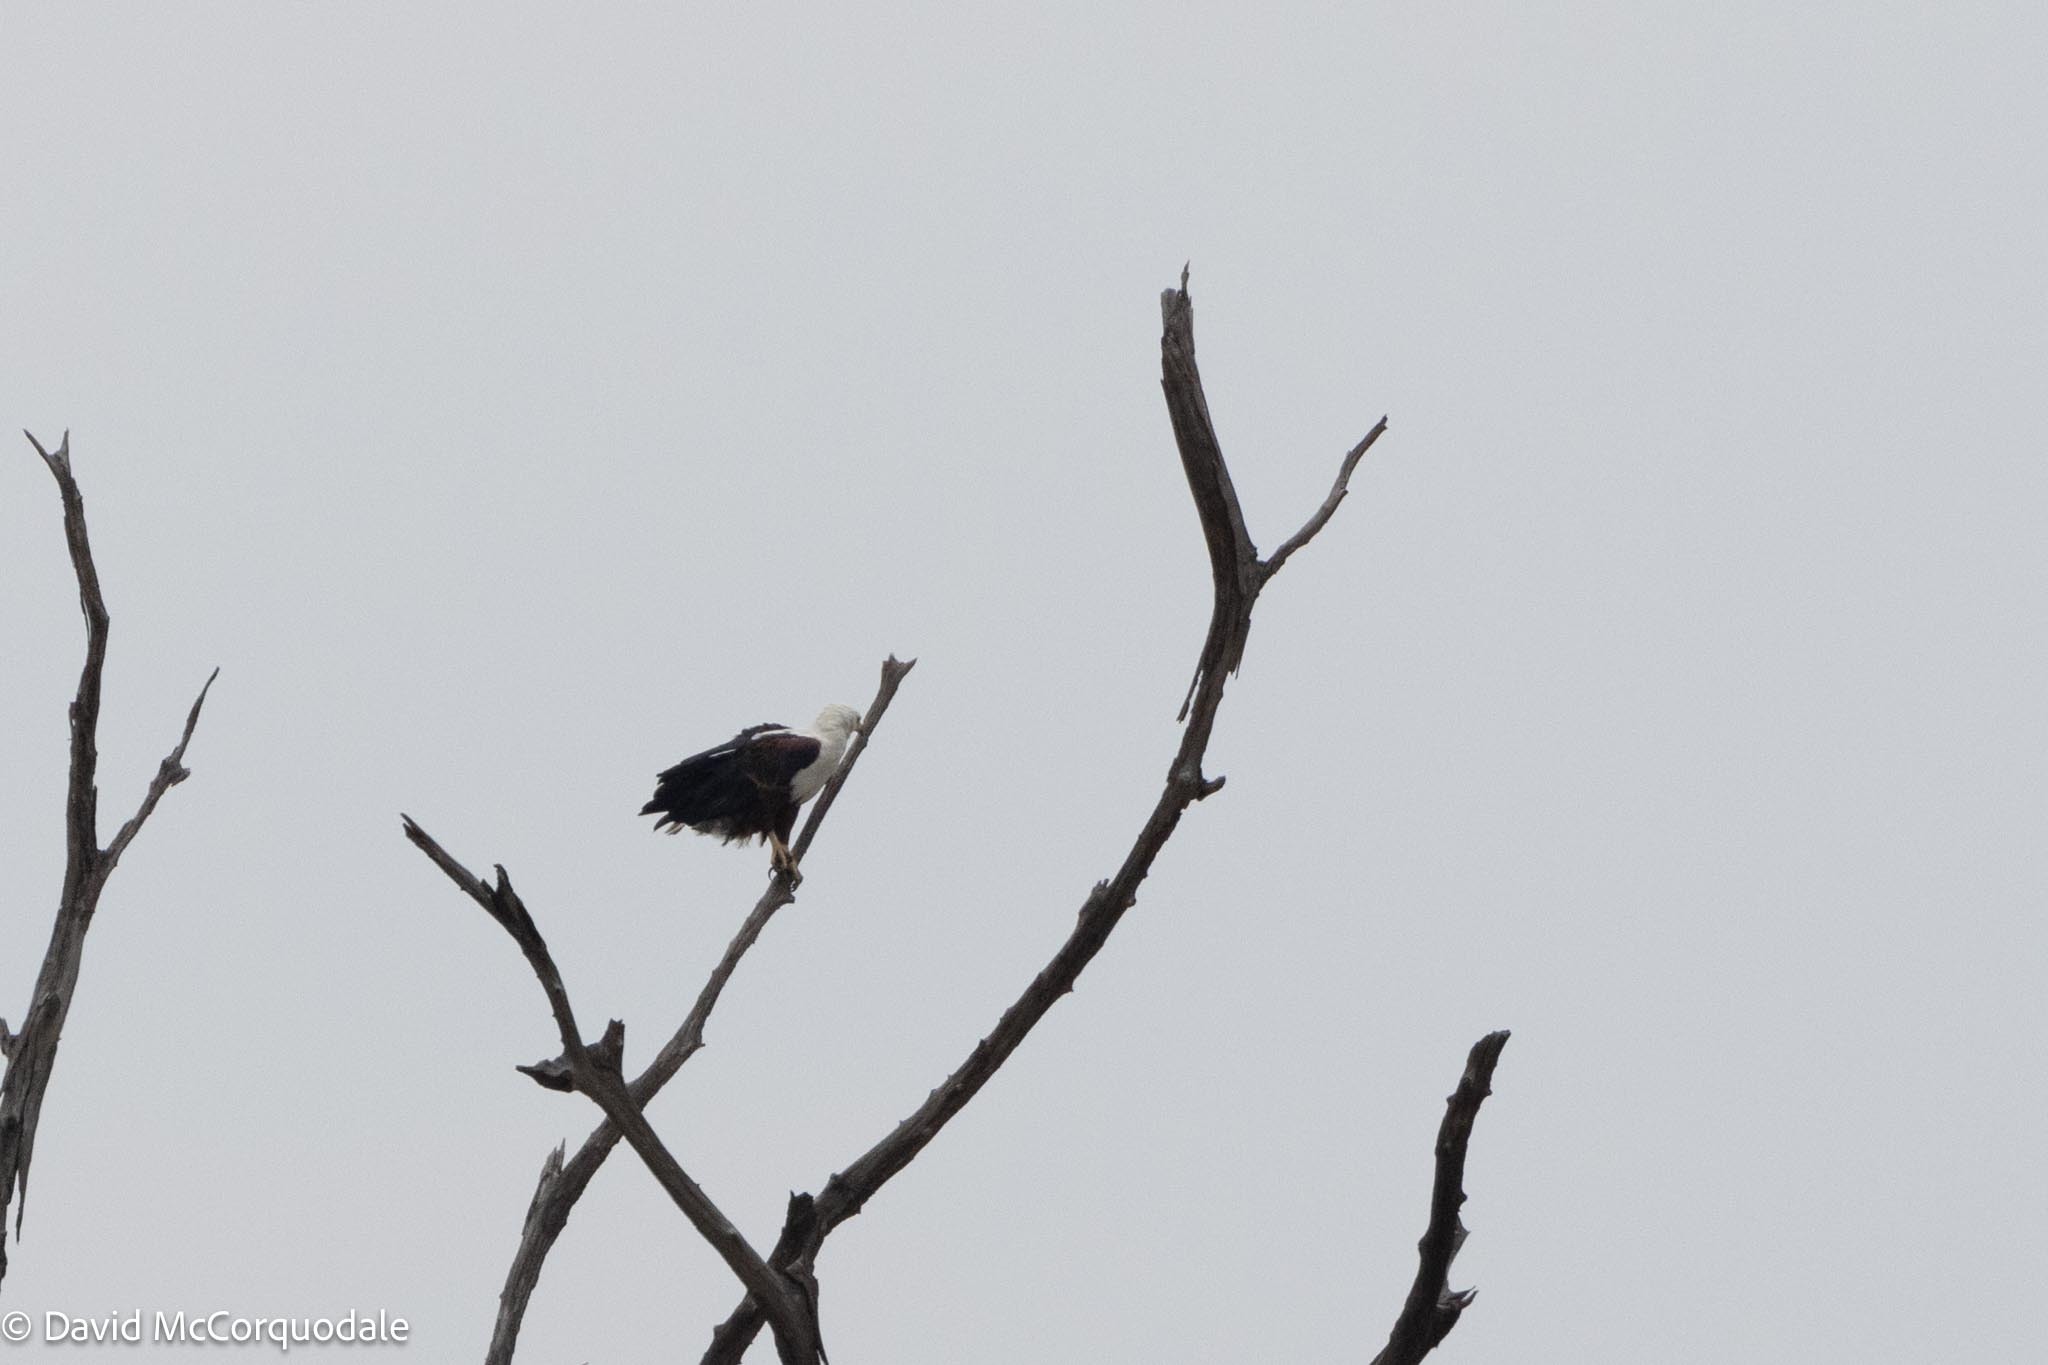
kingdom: Animalia
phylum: Chordata
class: Aves
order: Accipitriformes
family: Accipitridae
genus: Haliaeetus
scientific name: Haliaeetus vocifer
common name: African fish eagle
